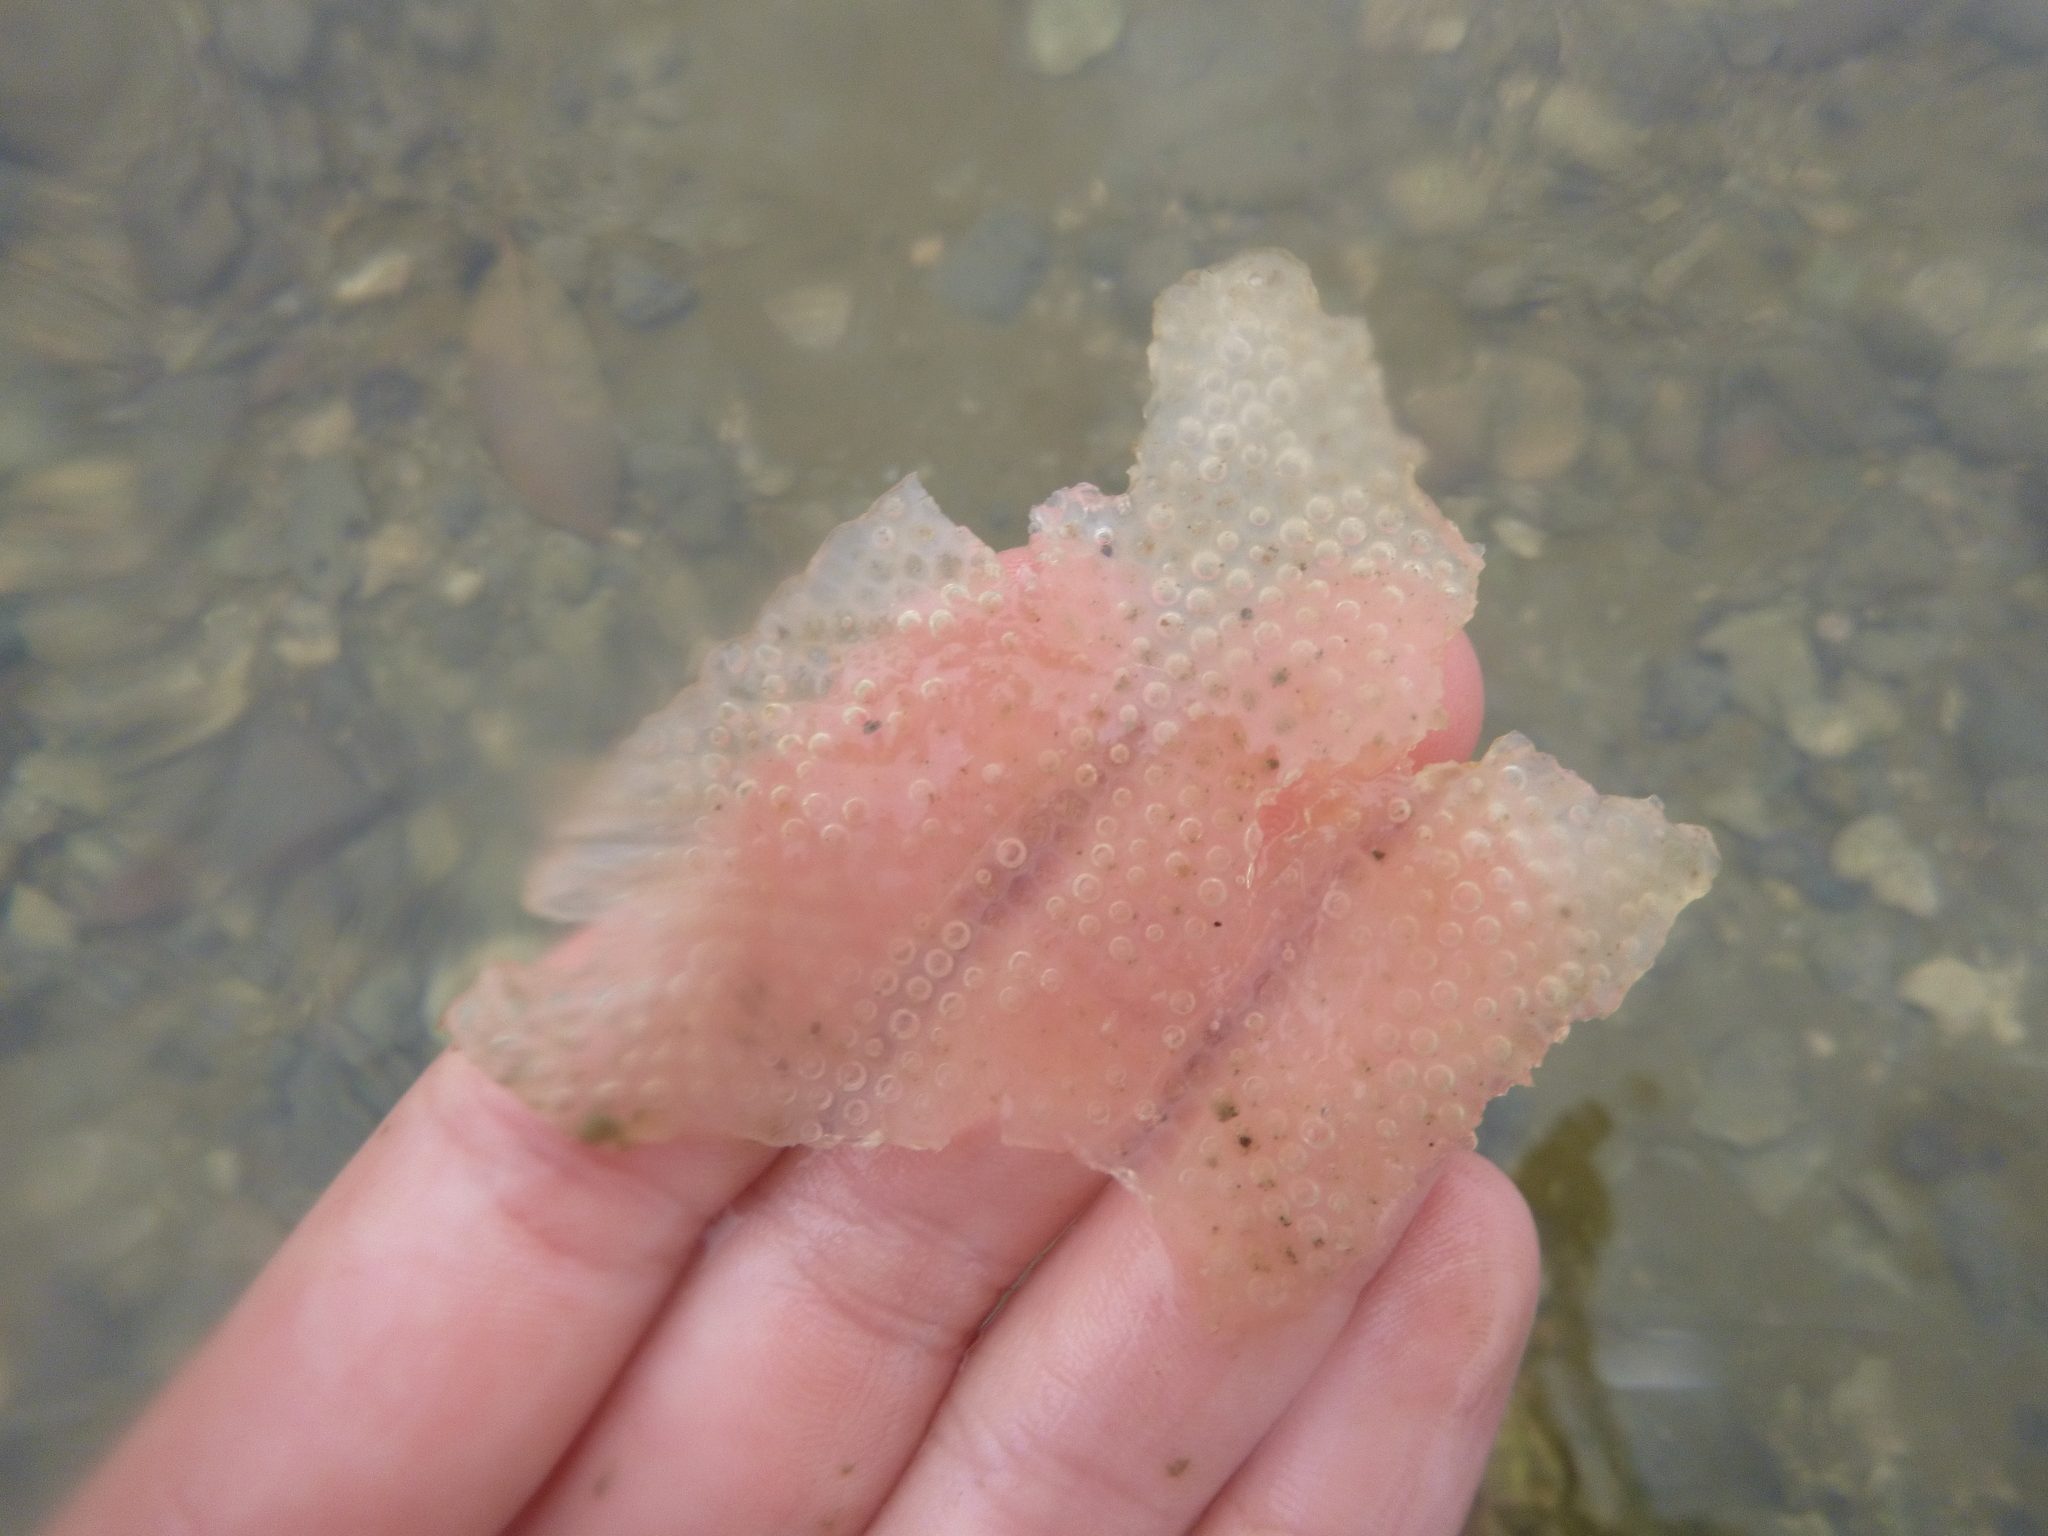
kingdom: Animalia
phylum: Mollusca
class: Gastropoda
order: Littorinimorpha
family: Tonnidae
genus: Tonna
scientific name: Tonna tankervillii
